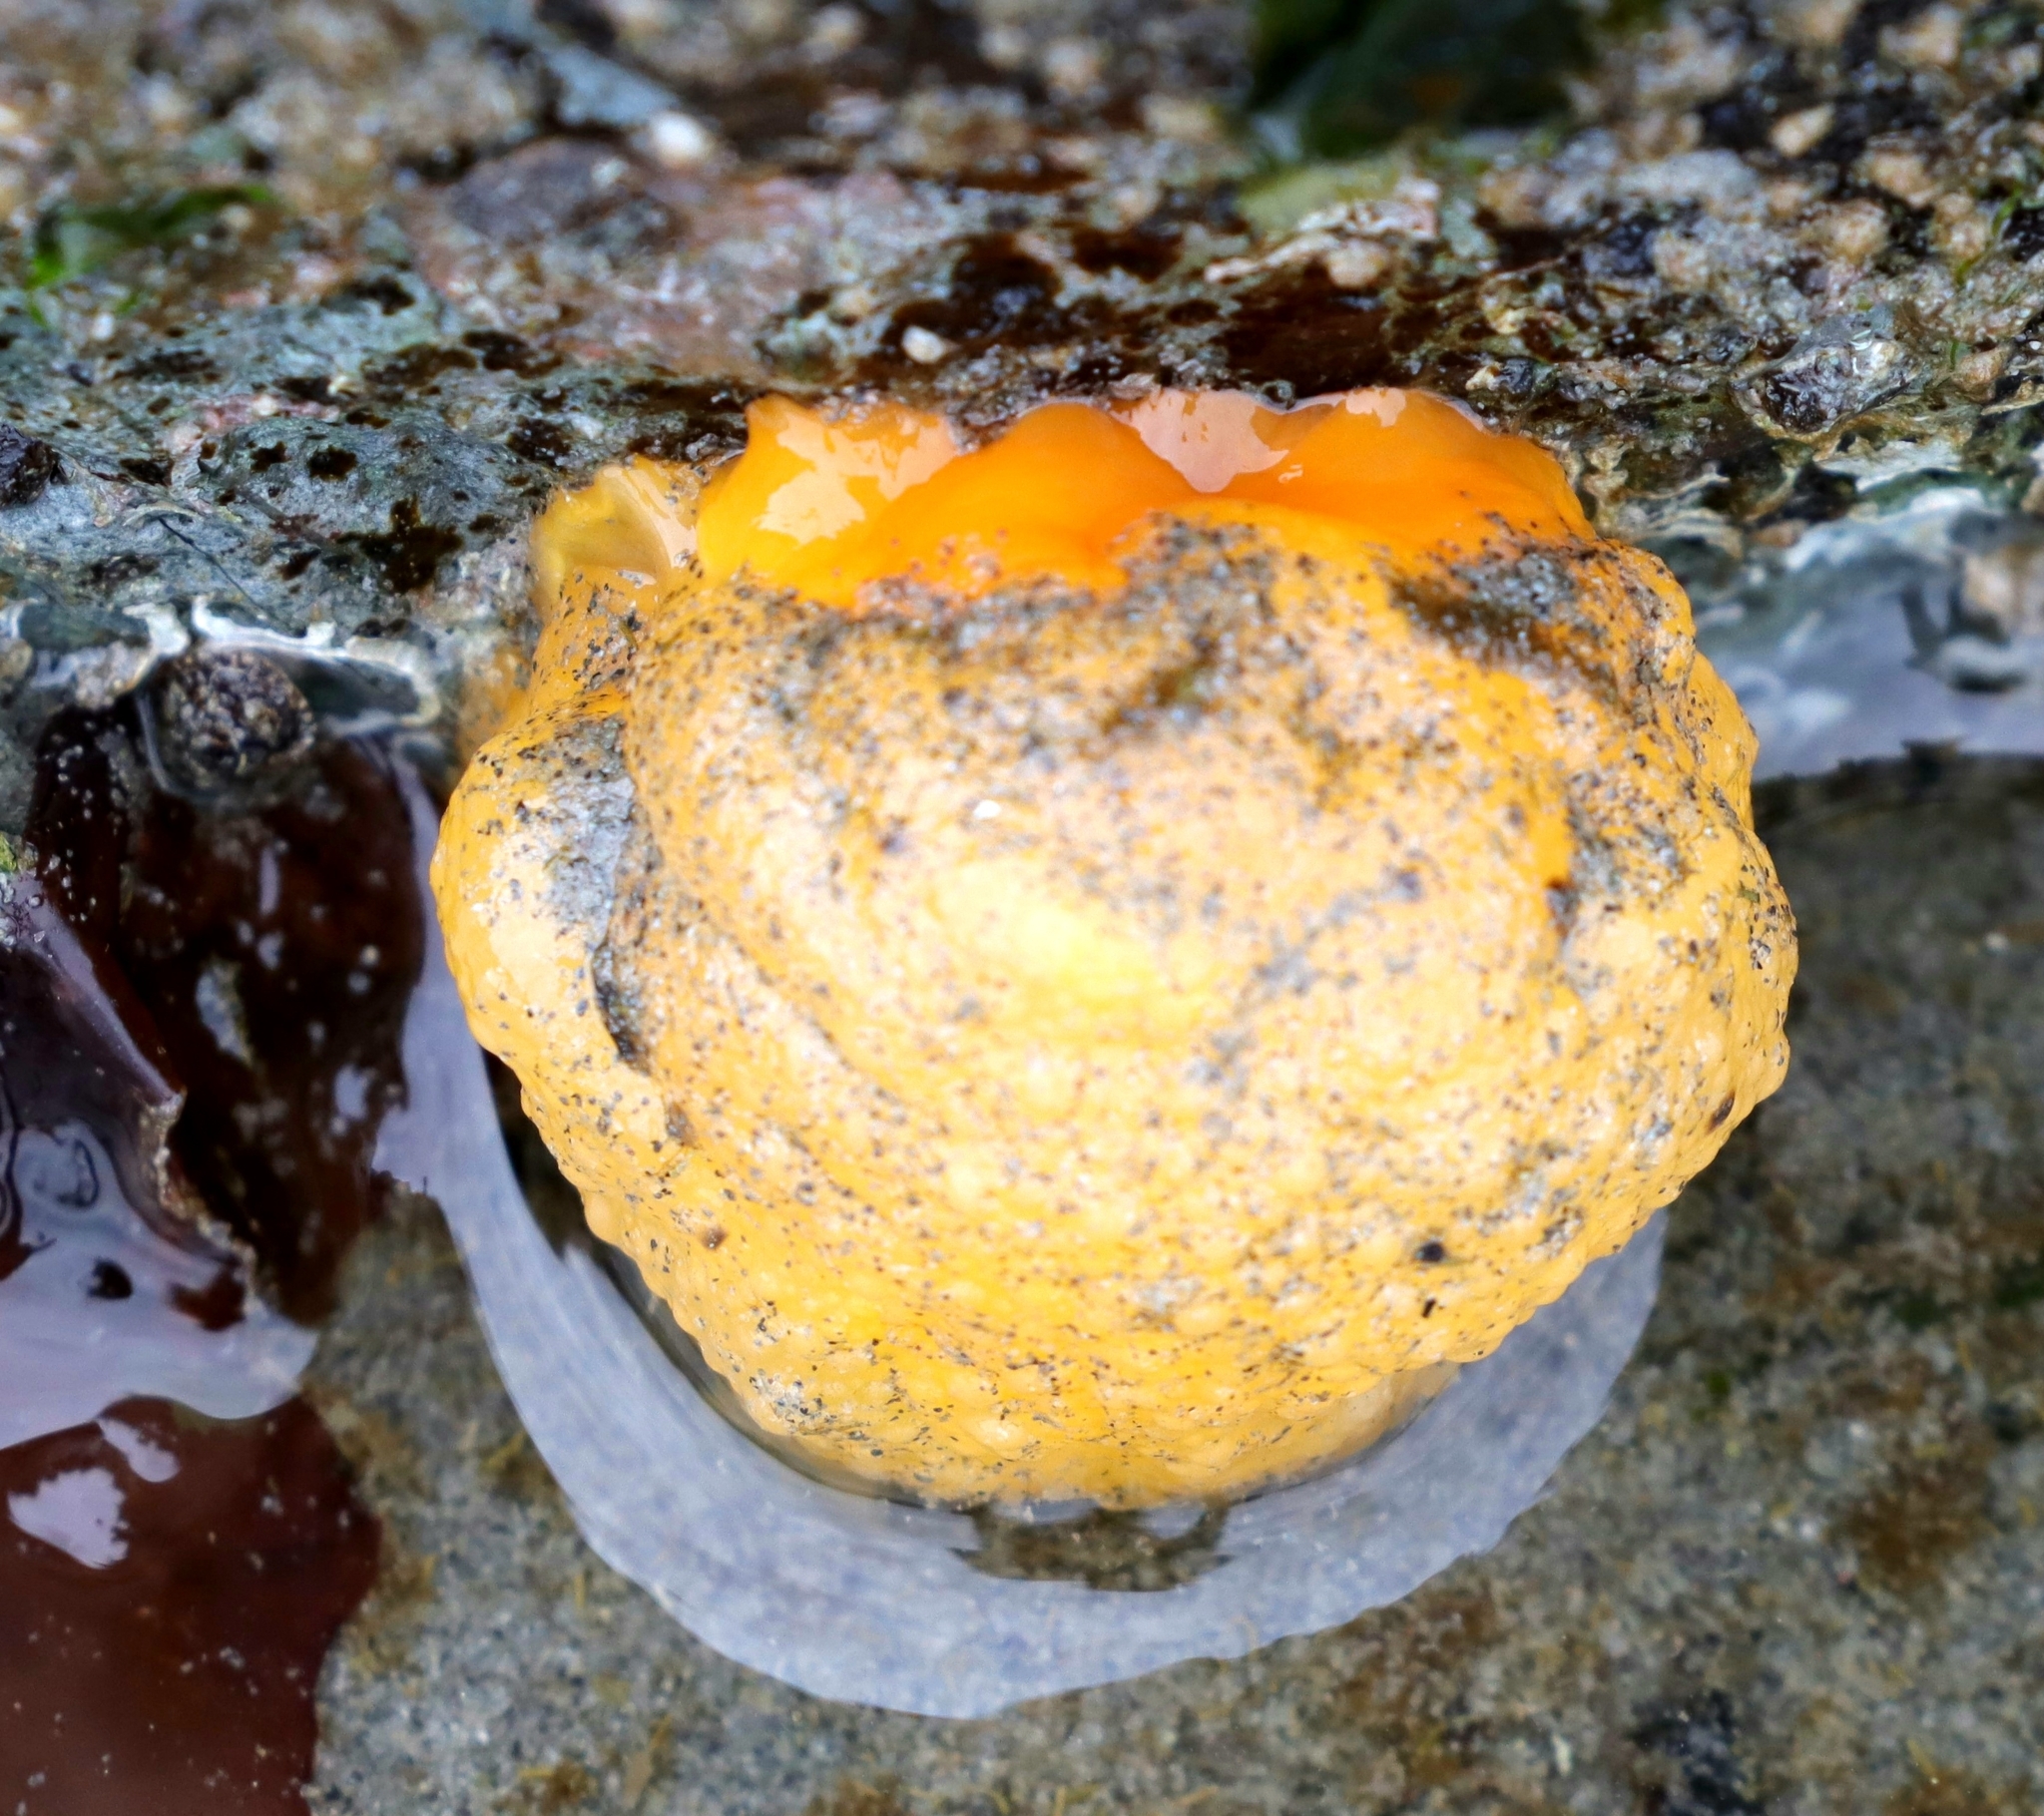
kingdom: Animalia
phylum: Mollusca
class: Gastropoda
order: Nudibranchia
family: Dorididae
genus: Doris
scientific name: Doris montereyensis
